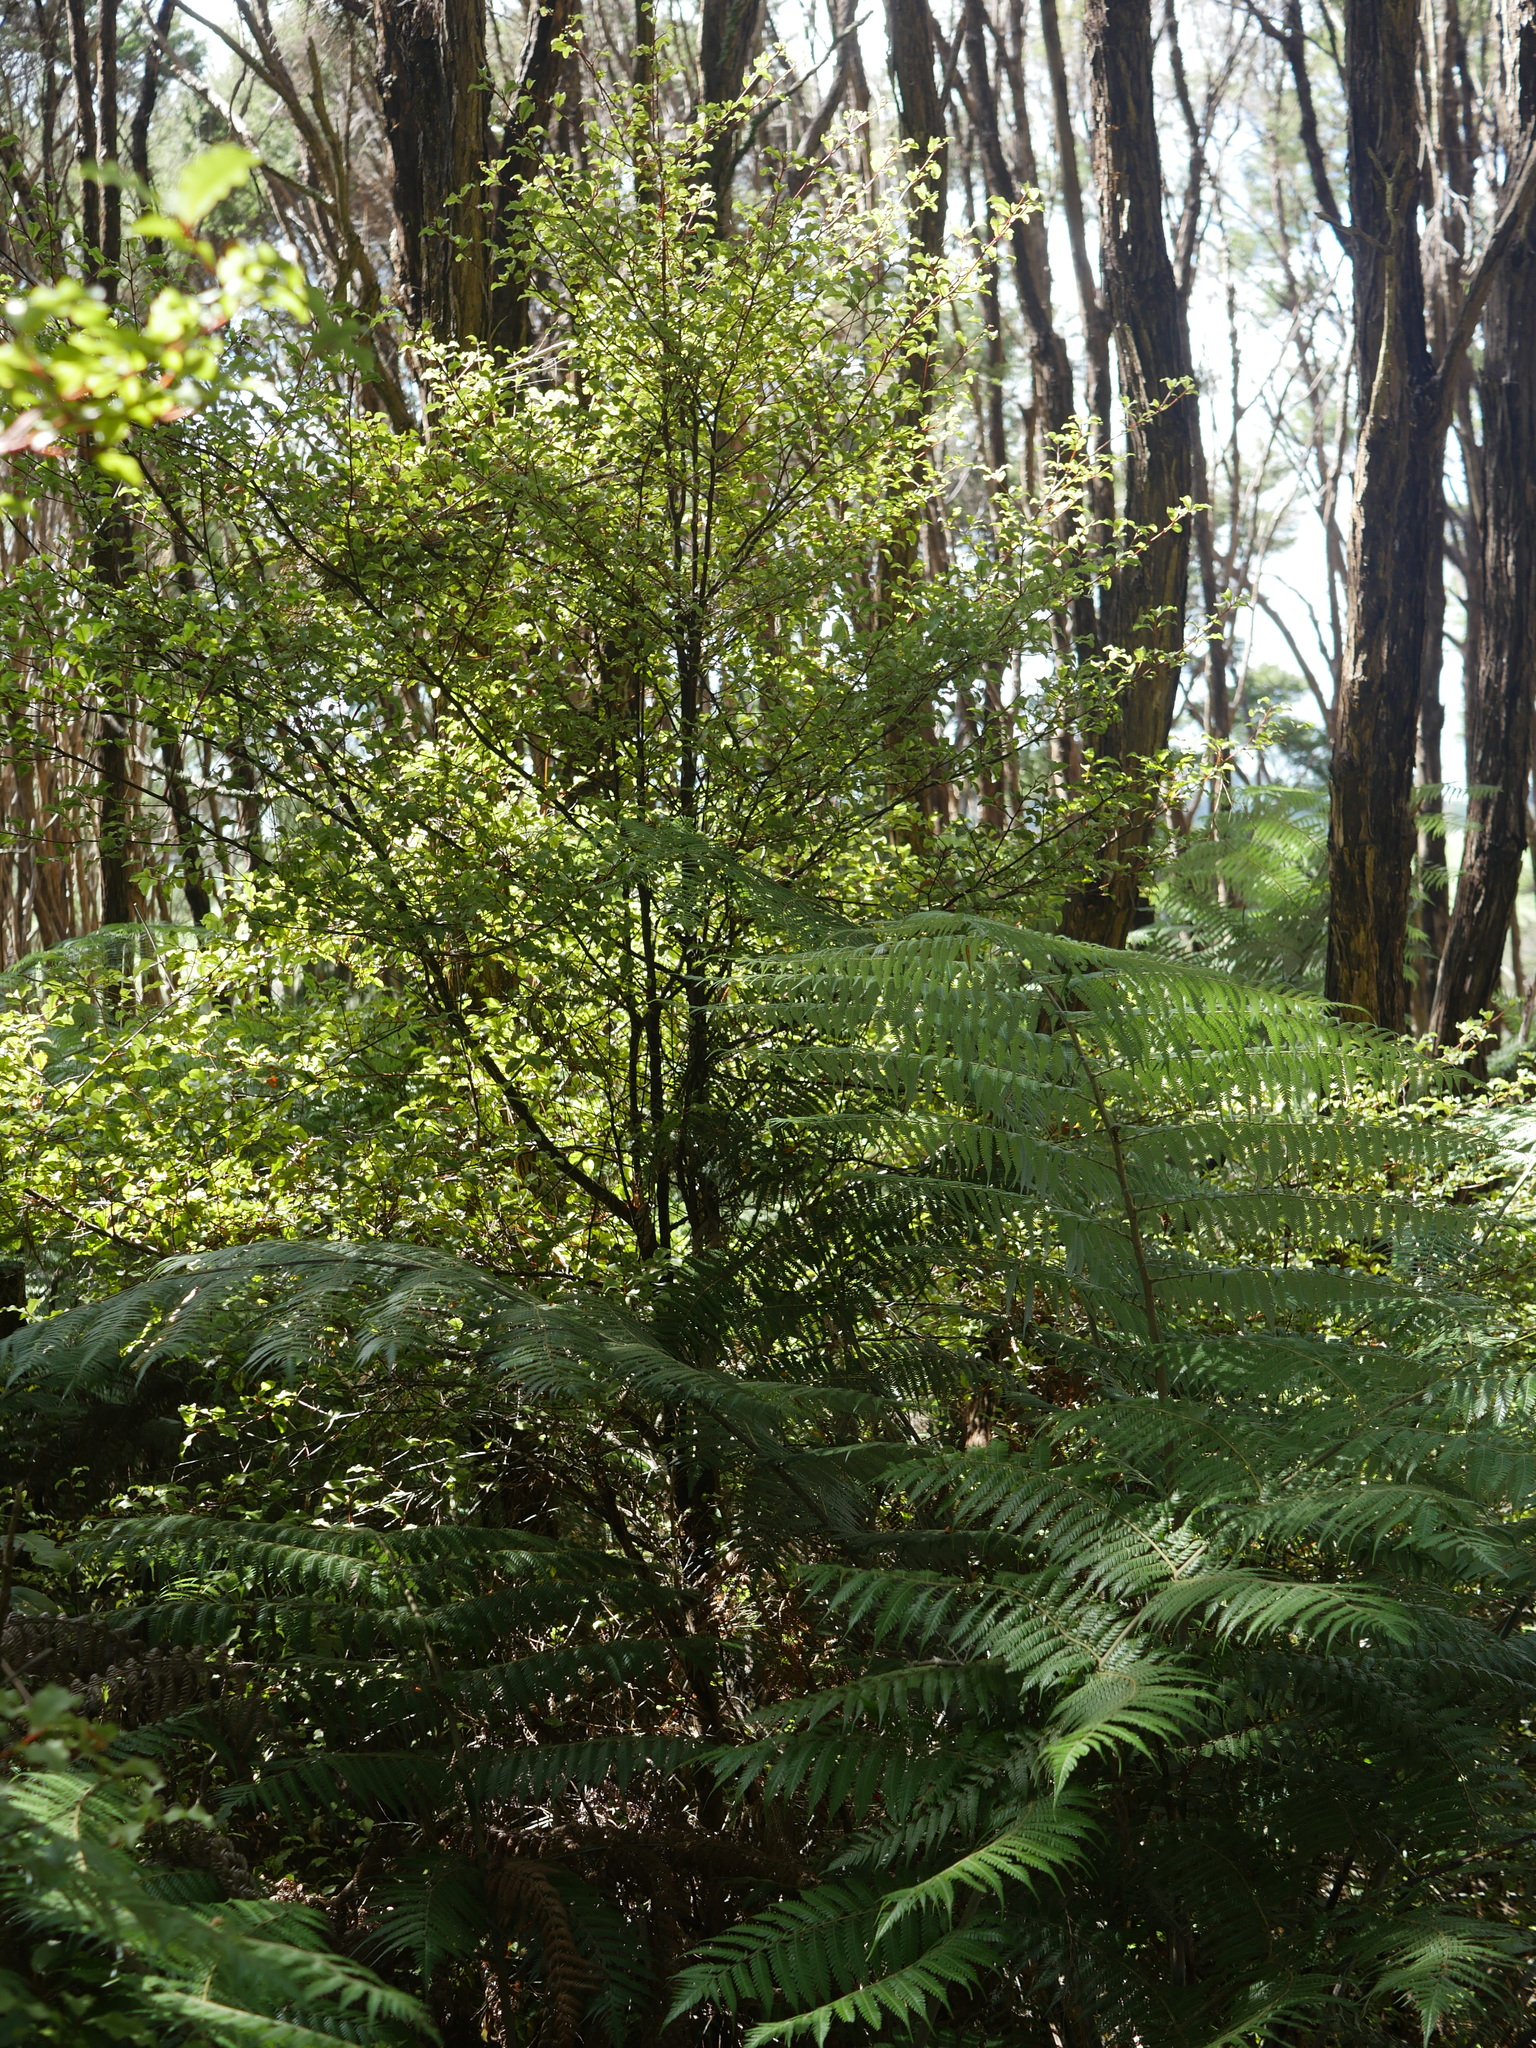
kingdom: Plantae
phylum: Tracheophyta
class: Magnoliopsida
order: Ericales
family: Primulaceae
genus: Myrsine
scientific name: Myrsine australis
